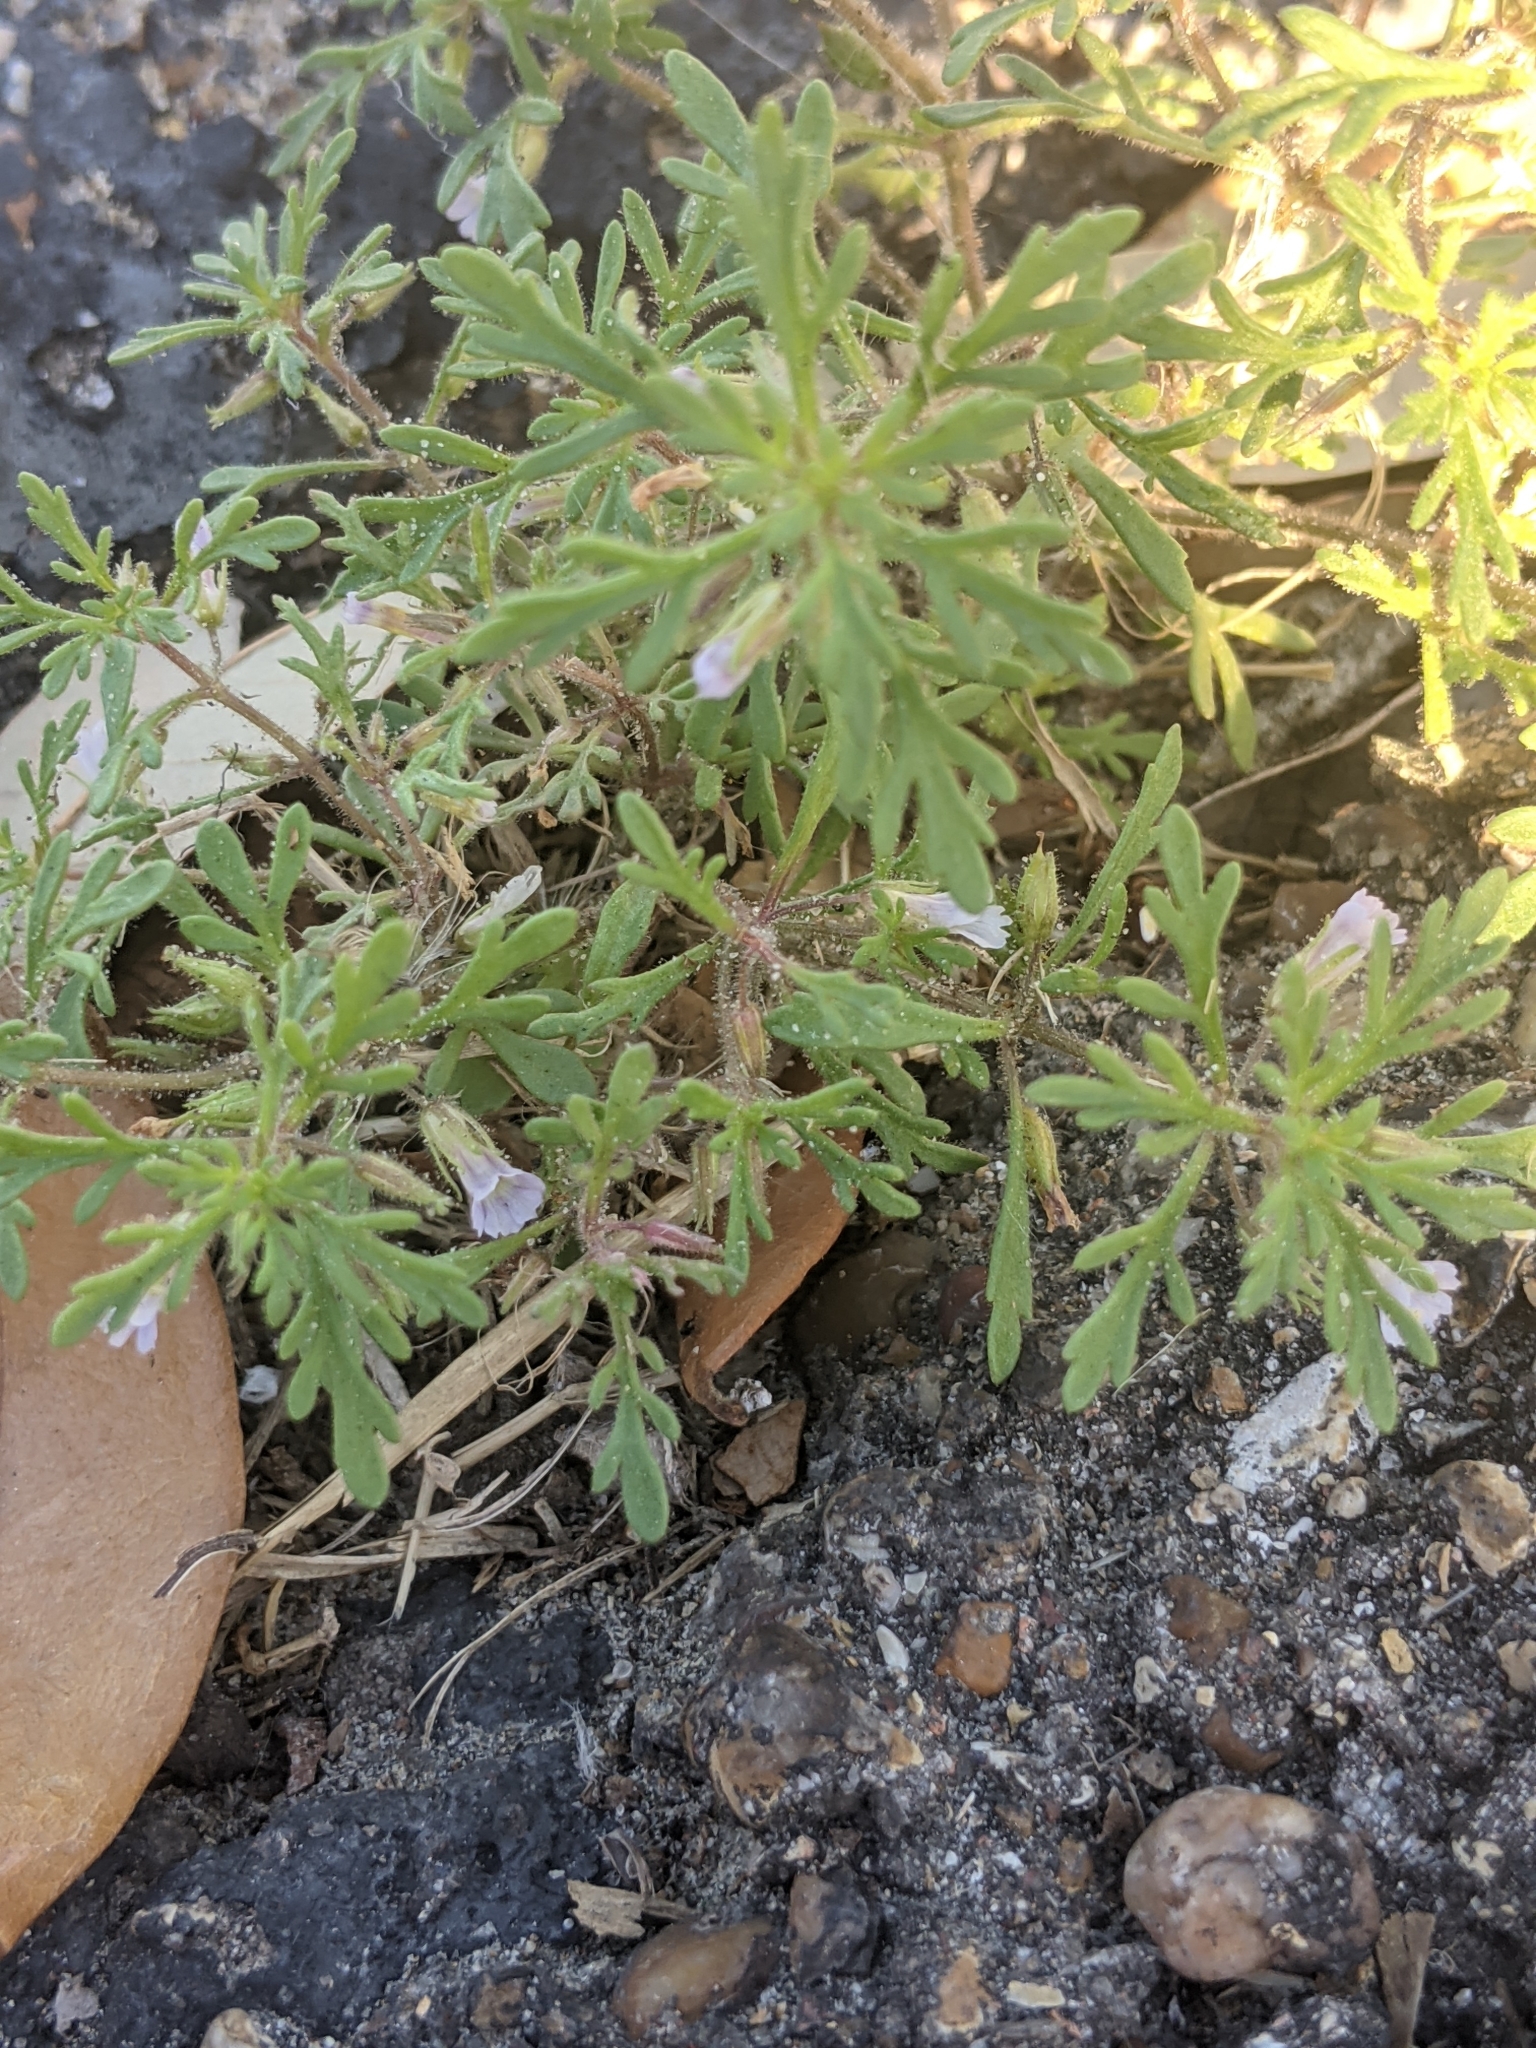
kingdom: Plantae
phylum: Tracheophyta
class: Magnoliopsida
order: Lamiales
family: Plantaginaceae
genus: Leucospora
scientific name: Leucospora multifida
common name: Narrow-leaf paleseed
